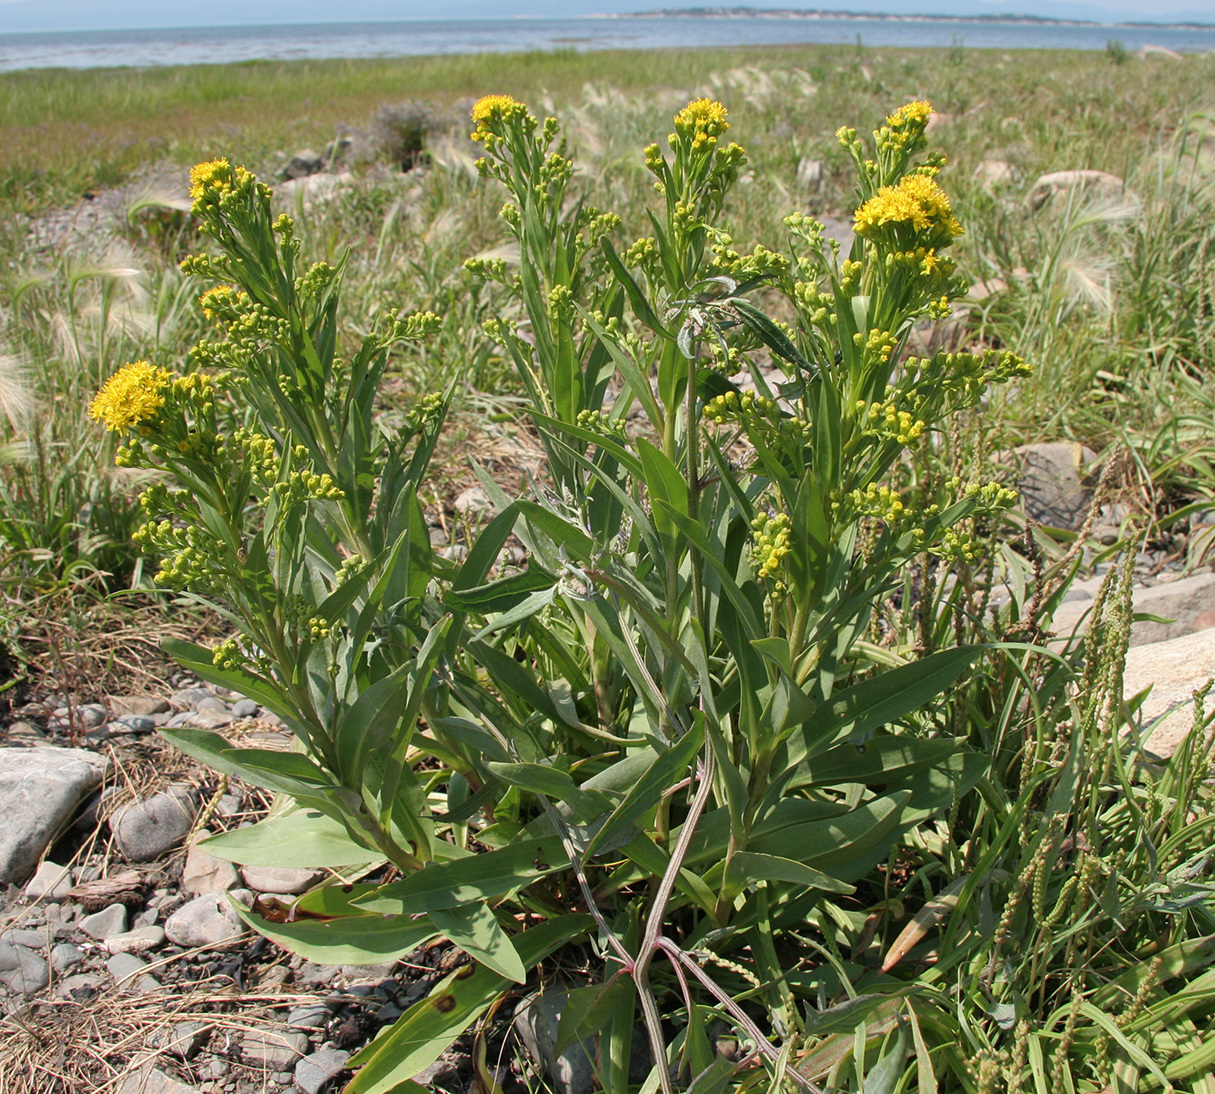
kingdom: Plantae
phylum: Tracheophyta
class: Magnoliopsida
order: Asterales
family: Asteraceae
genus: Solidago
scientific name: Solidago sempervirens
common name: Salt-marsh goldenrod
